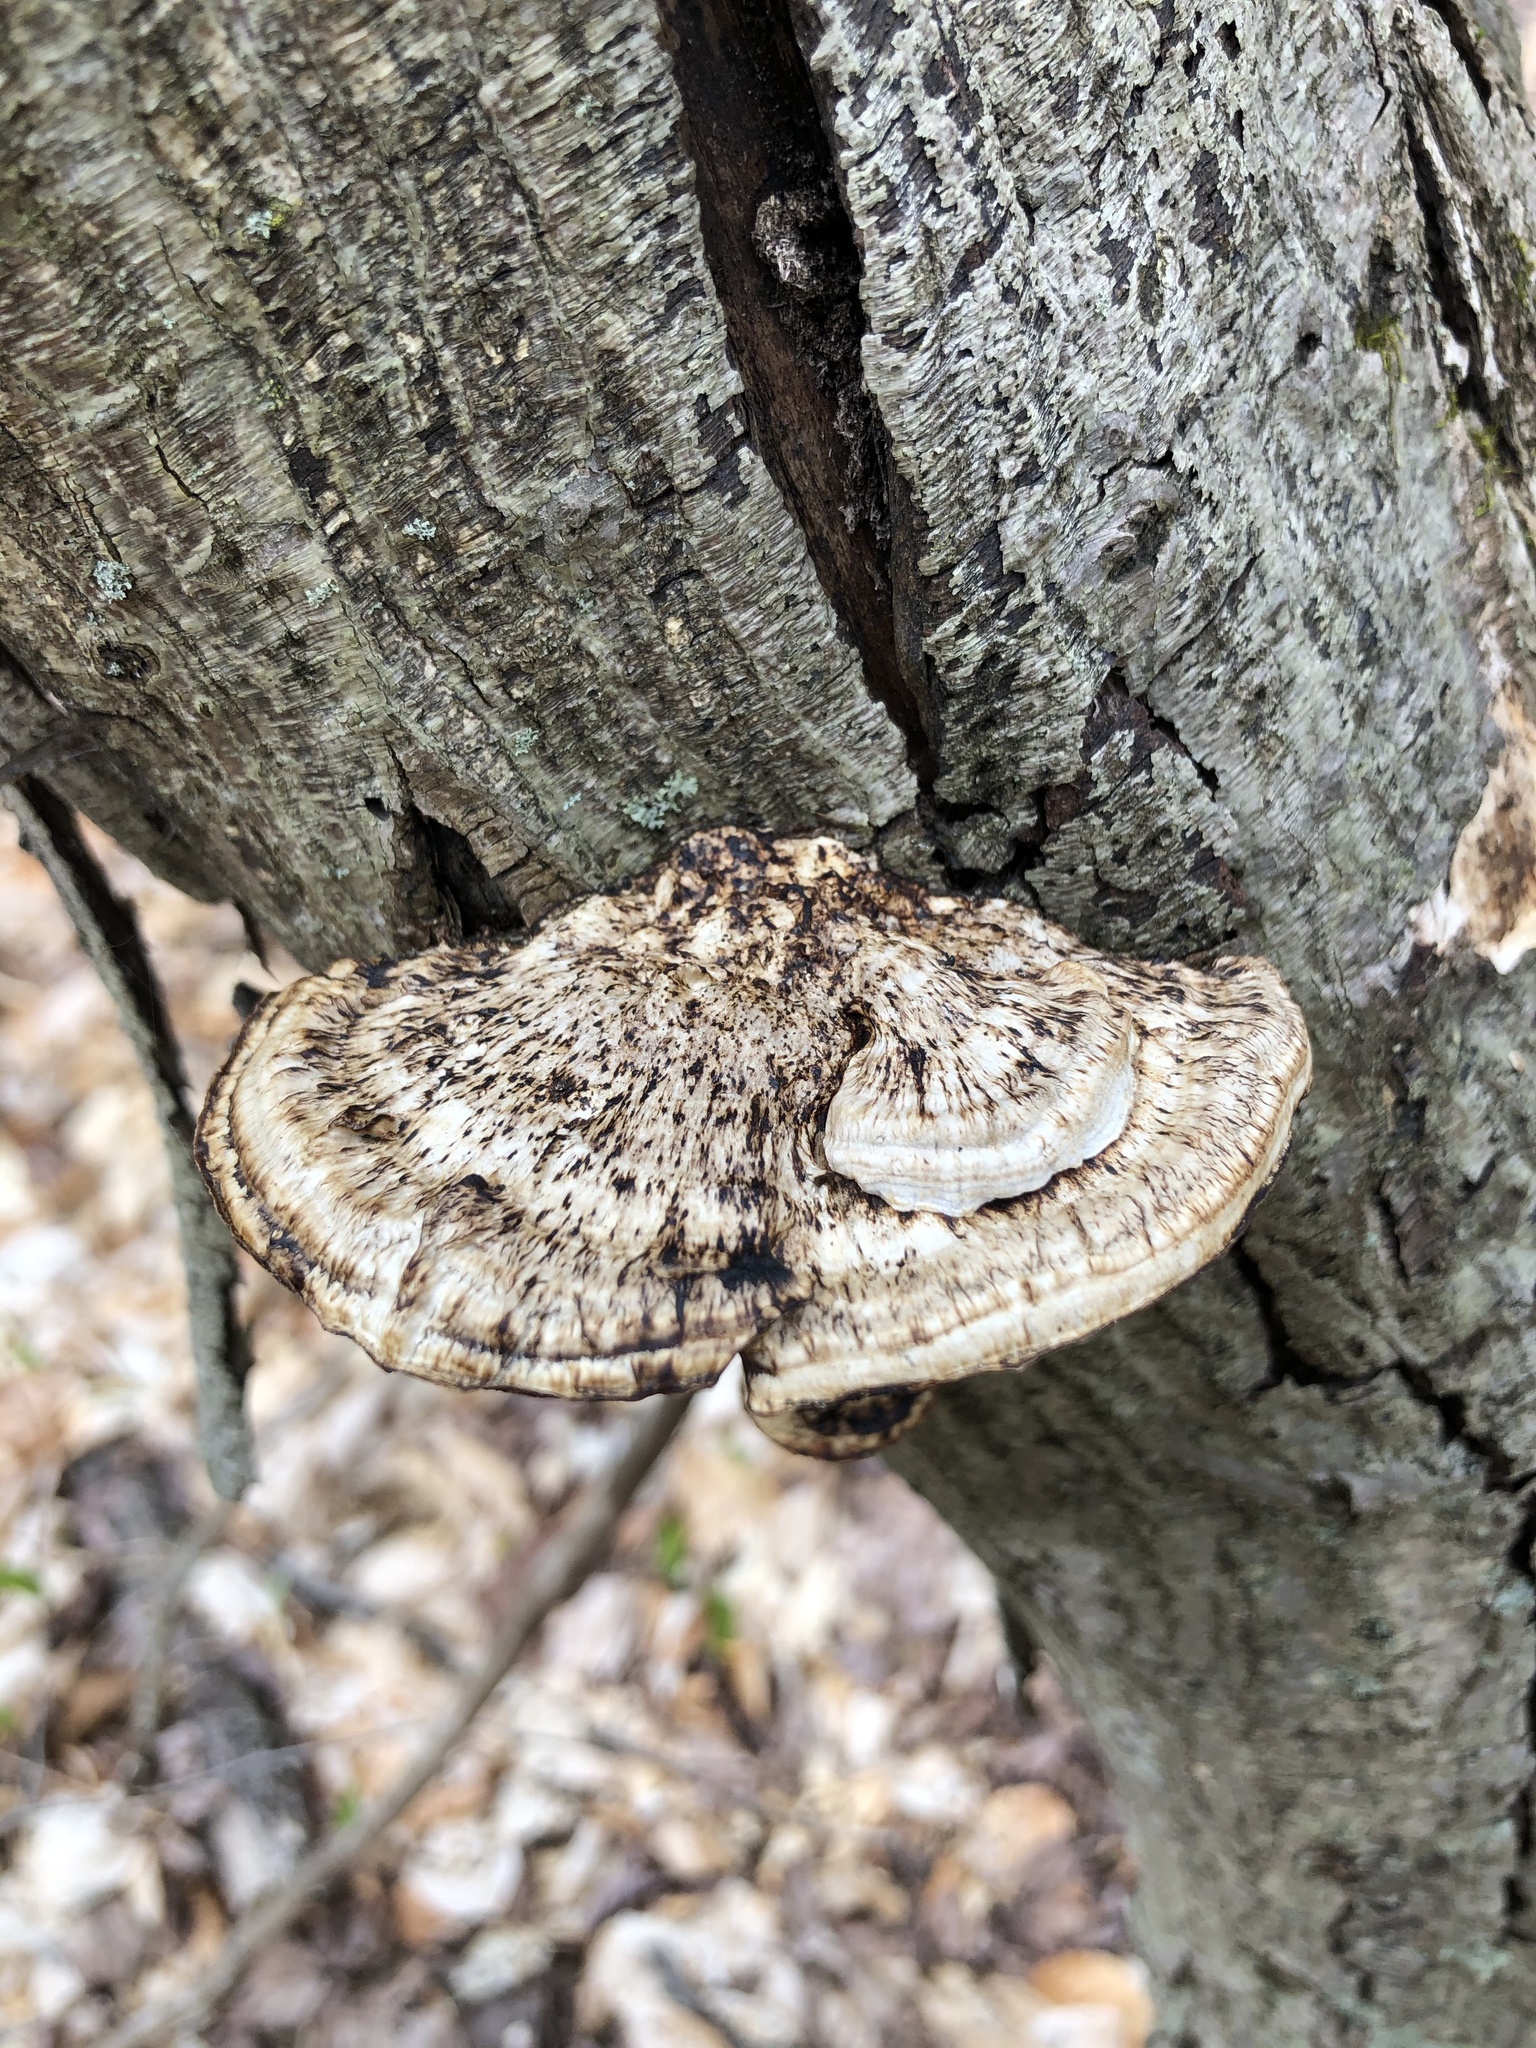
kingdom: Fungi
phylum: Basidiomycota
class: Agaricomycetes
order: Polyporales
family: Polyporaceae
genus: Daedaleopsis
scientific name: Daedaleopsis confragosa
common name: Blushing bracket
